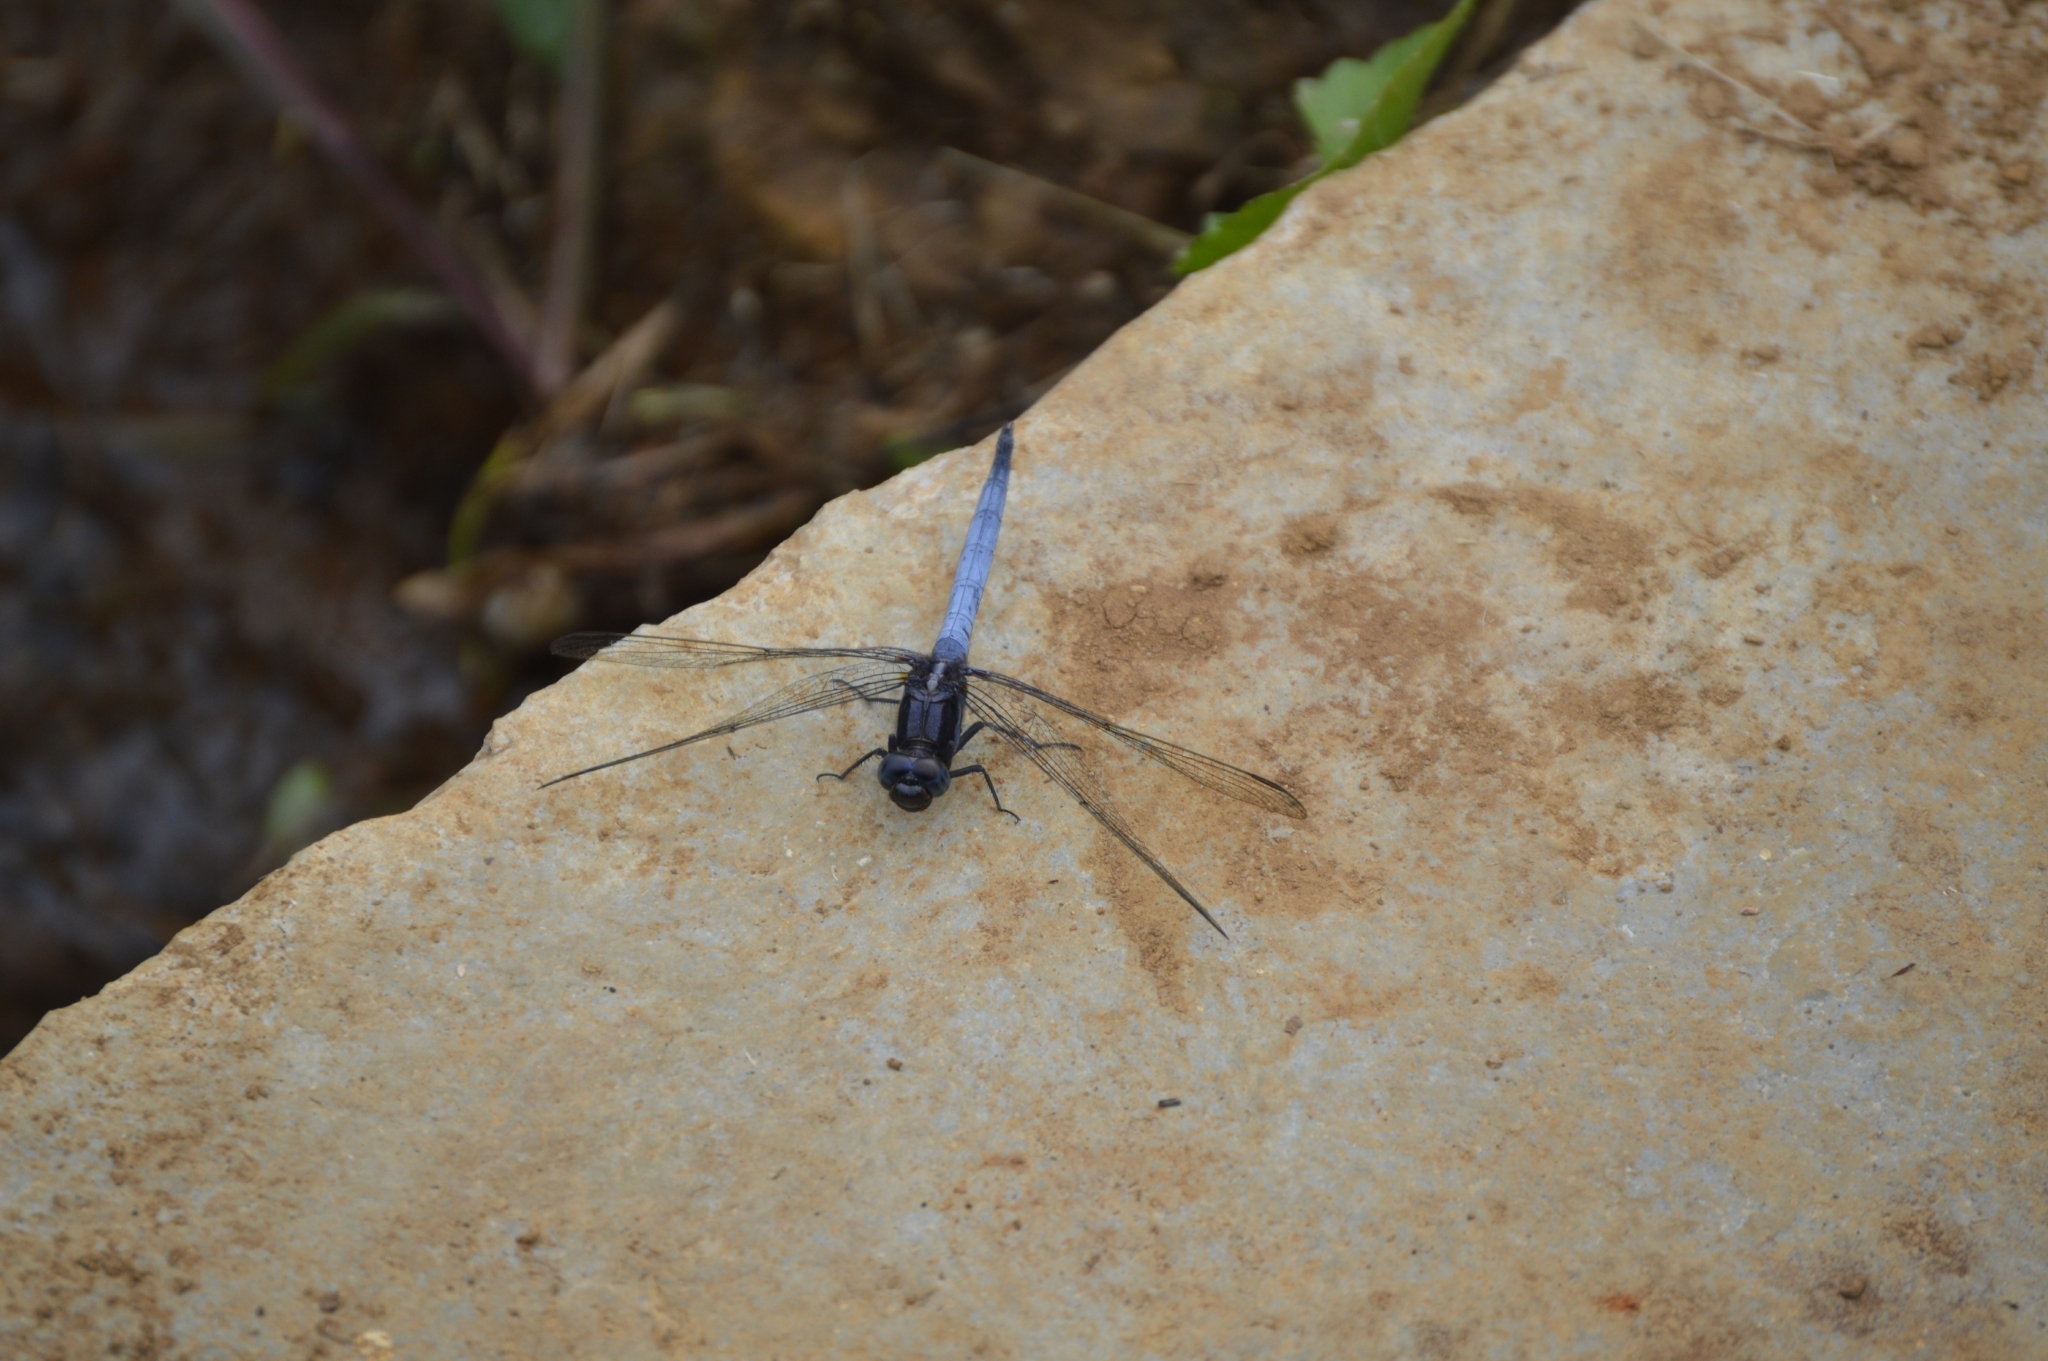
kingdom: Animalia
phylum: Arthropoda
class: Insecta
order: Odonata
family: Libellulidae
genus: Orthetrum
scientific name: Orthetrum glaucum
